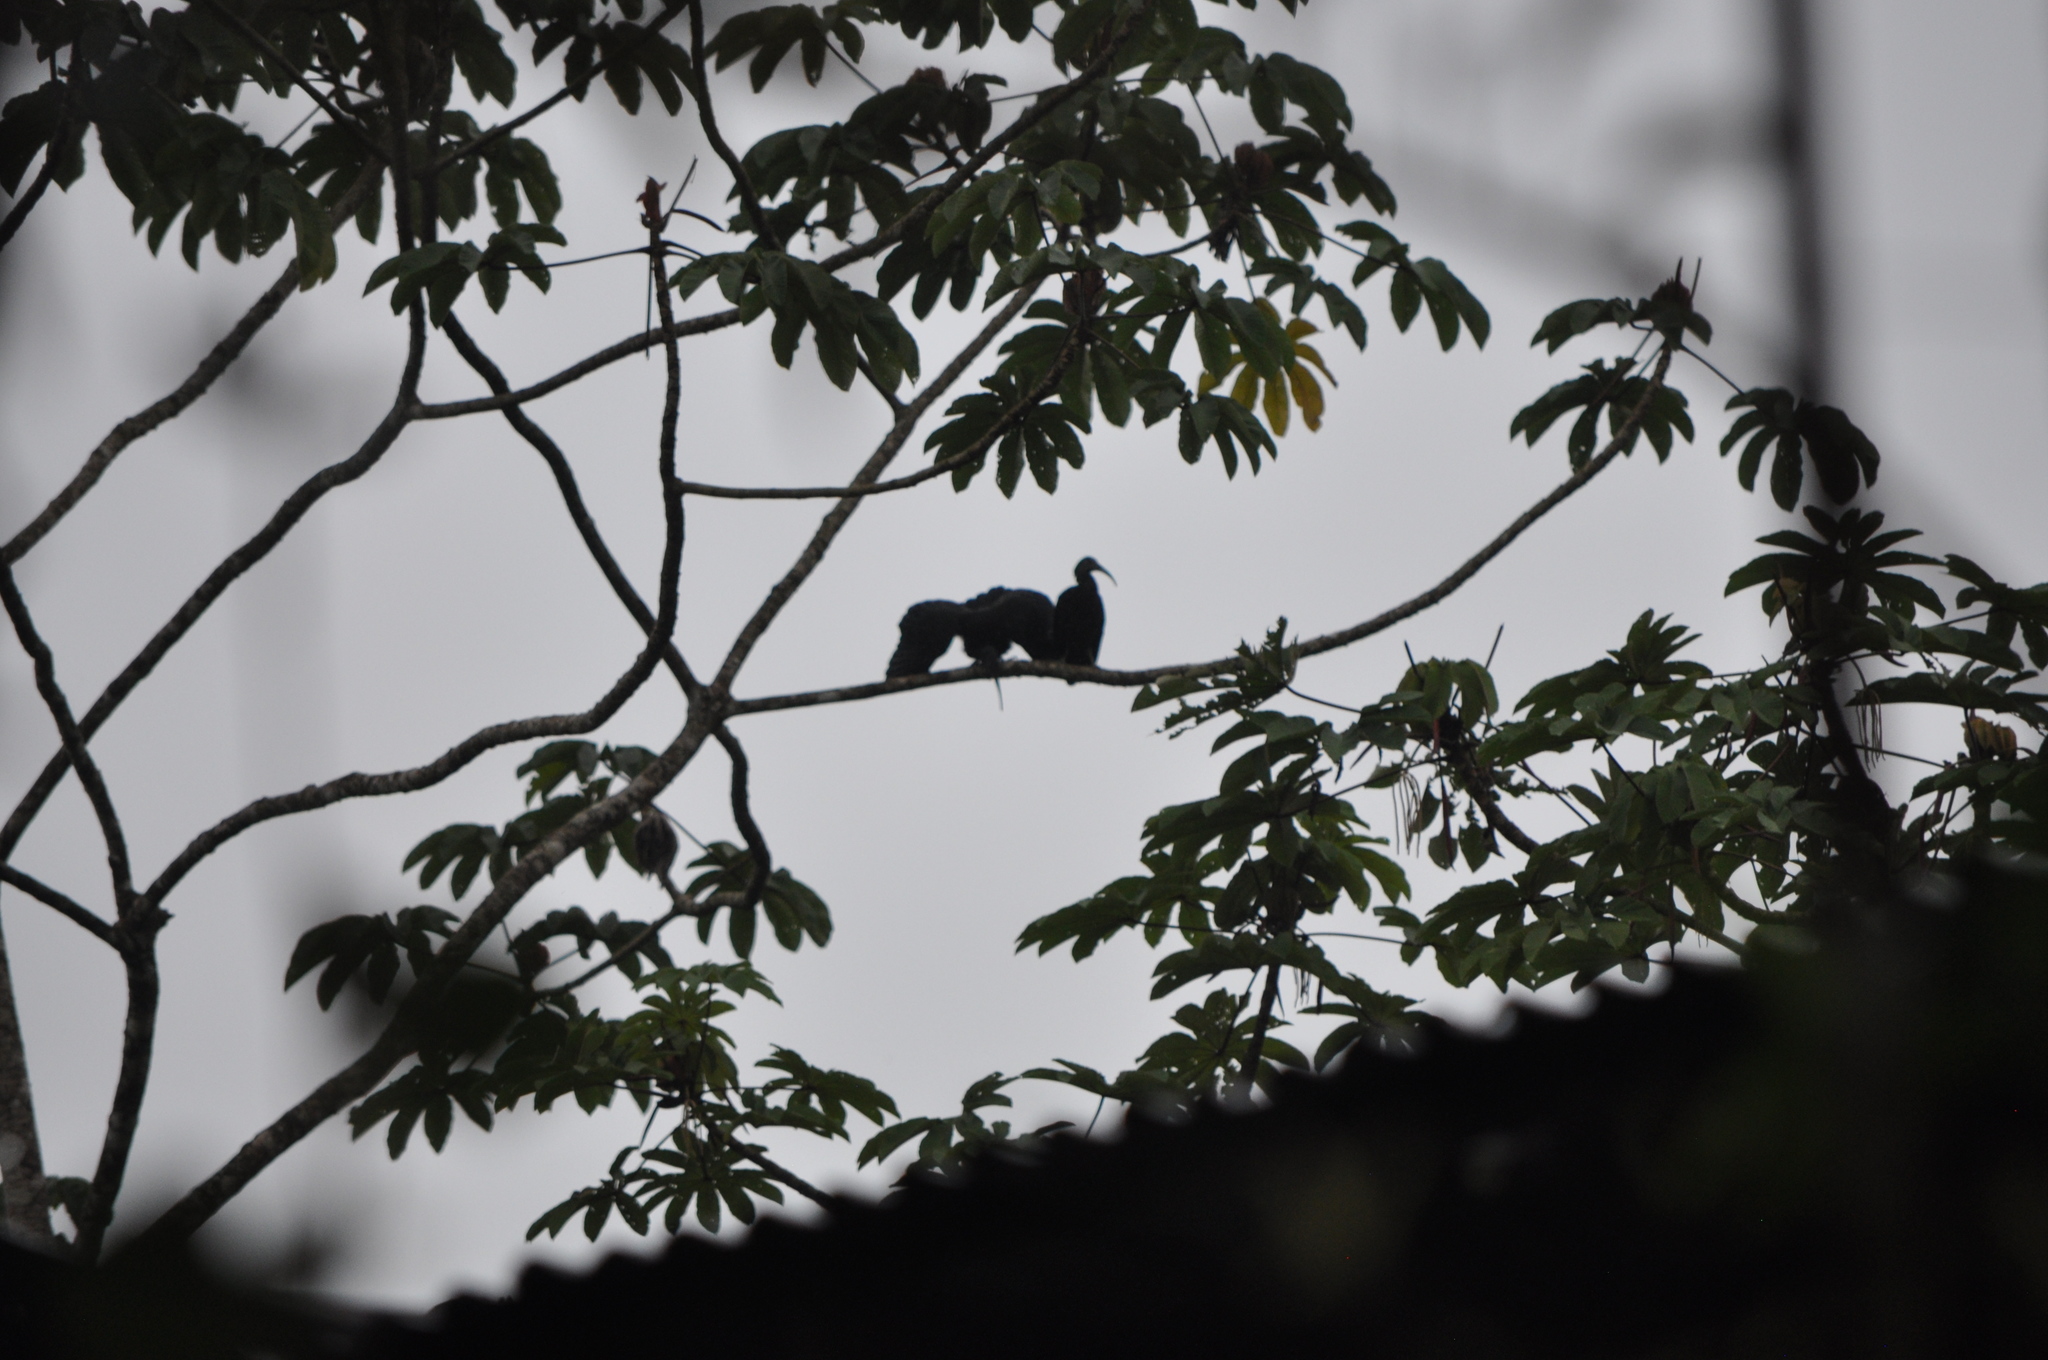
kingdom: Animalia
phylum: Chordata
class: Aves
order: Pelecaniformes
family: Threskiornithidae
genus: Mesembrinibis
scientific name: Mesembrinibis cayennensis
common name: Green ibis
